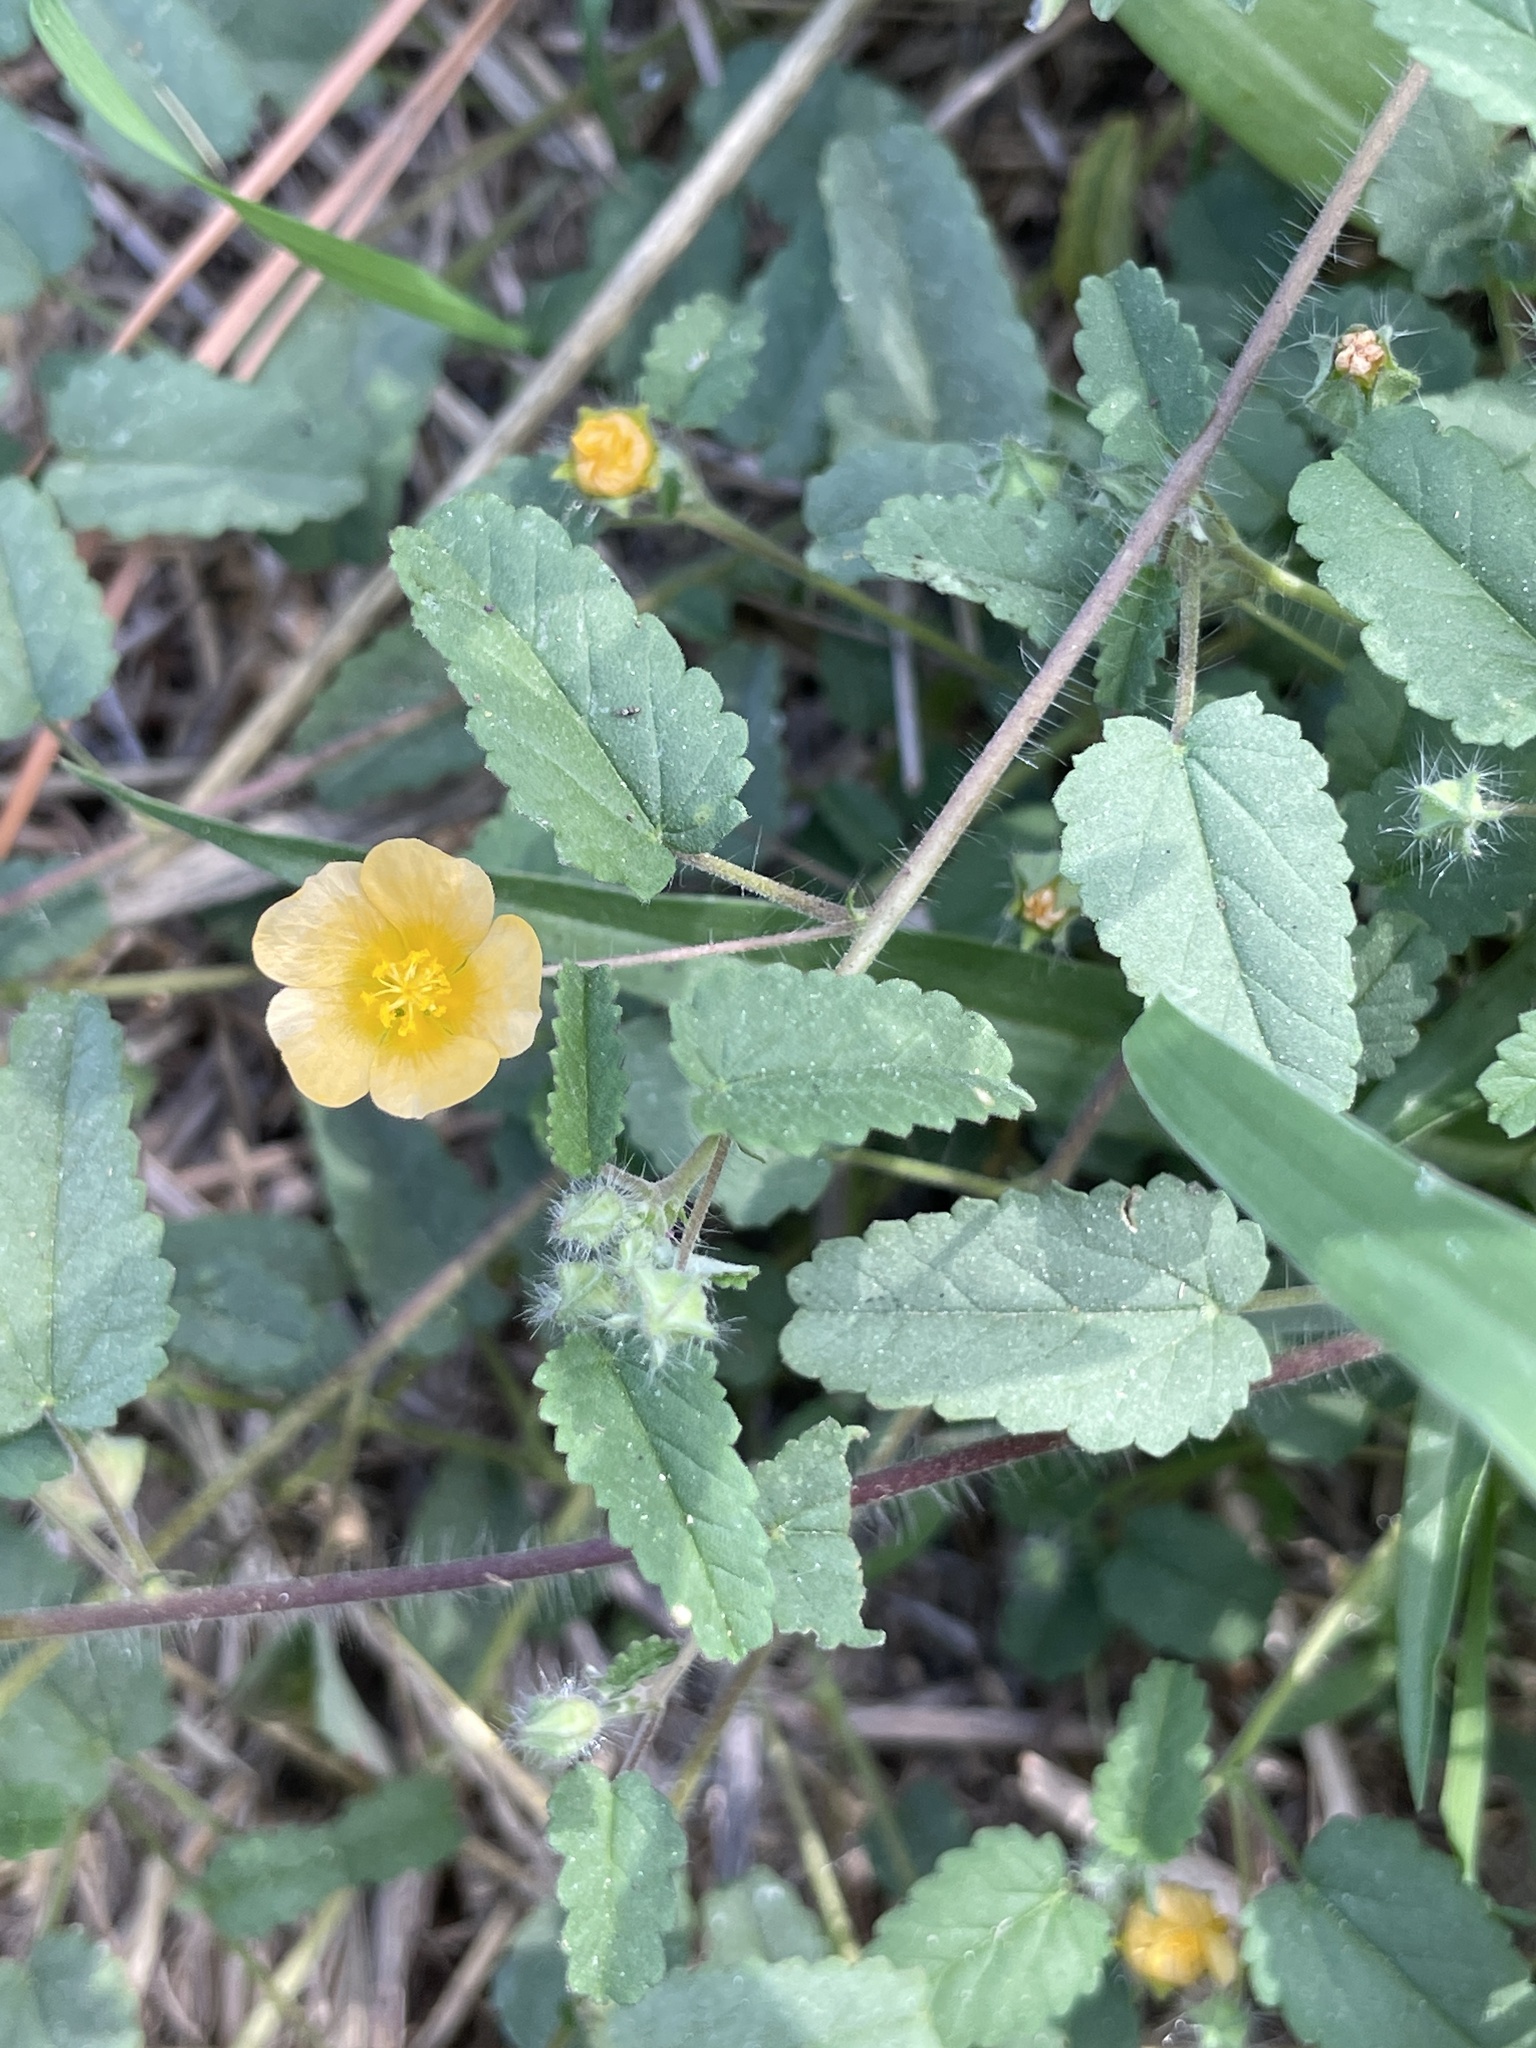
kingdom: Plantae
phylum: Tracheophyta
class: Magnoliopsida
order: Malvales
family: Malvaceae
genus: Sida
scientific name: Sida abutilifolia
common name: Spreading fanpetals
